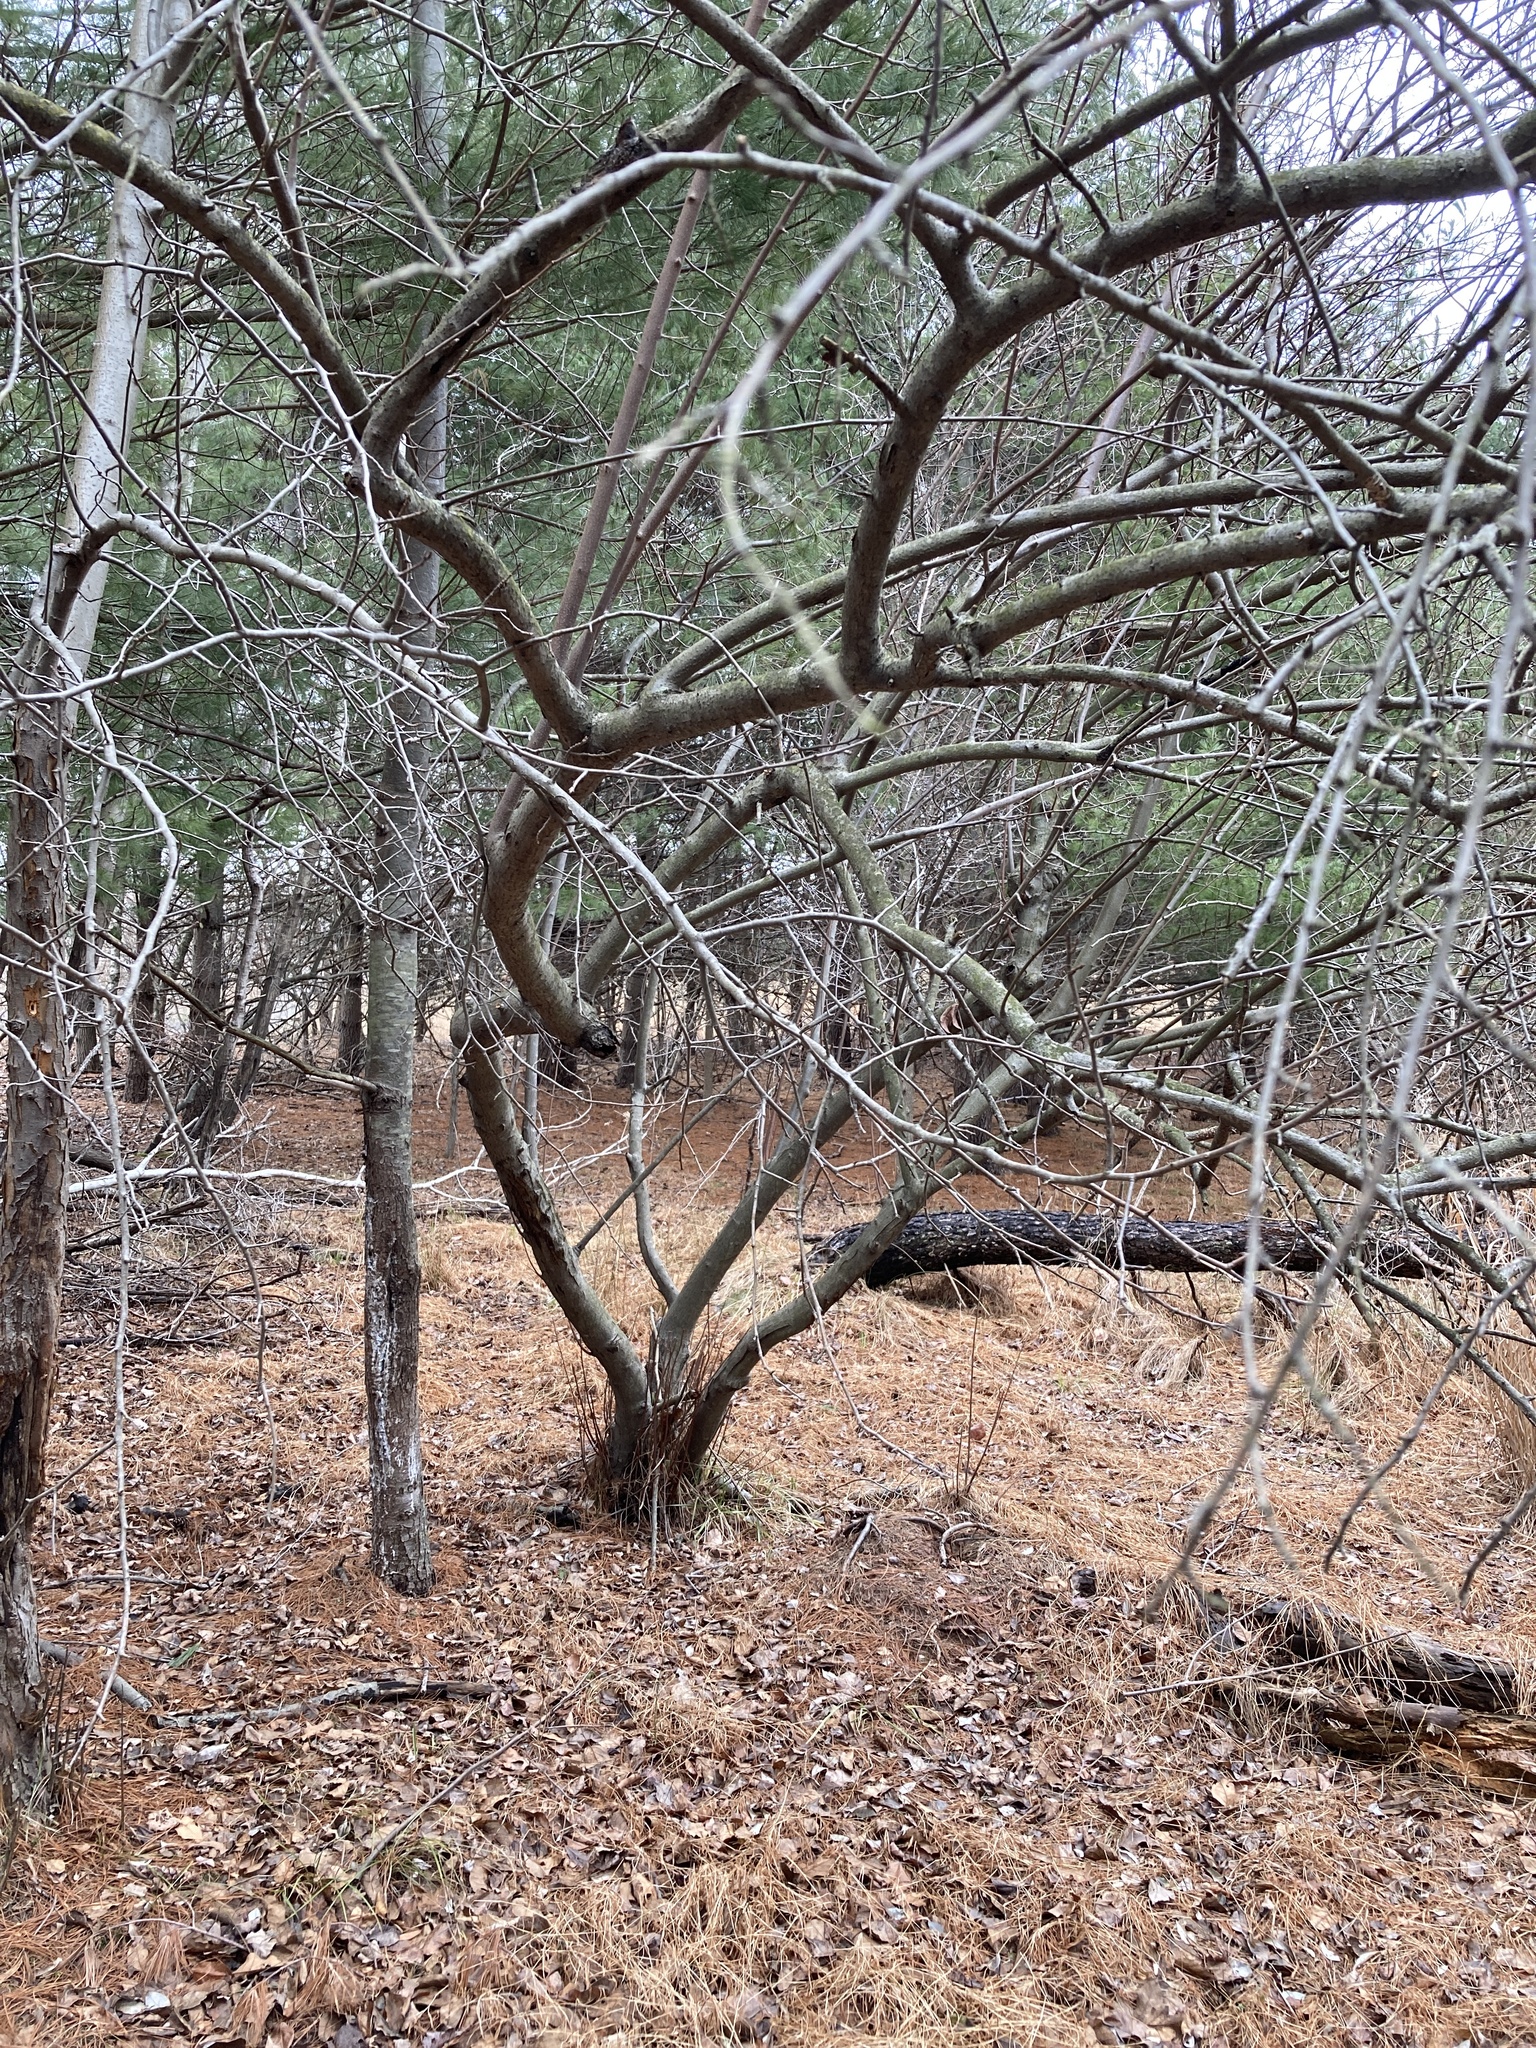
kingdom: Plantae
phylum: Tracheophyta
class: Magnoliopsida
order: Rosales
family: Elaeagnaceae
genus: Elaeagnus
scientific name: Elaeagnus umbellata
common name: Autumn olive
